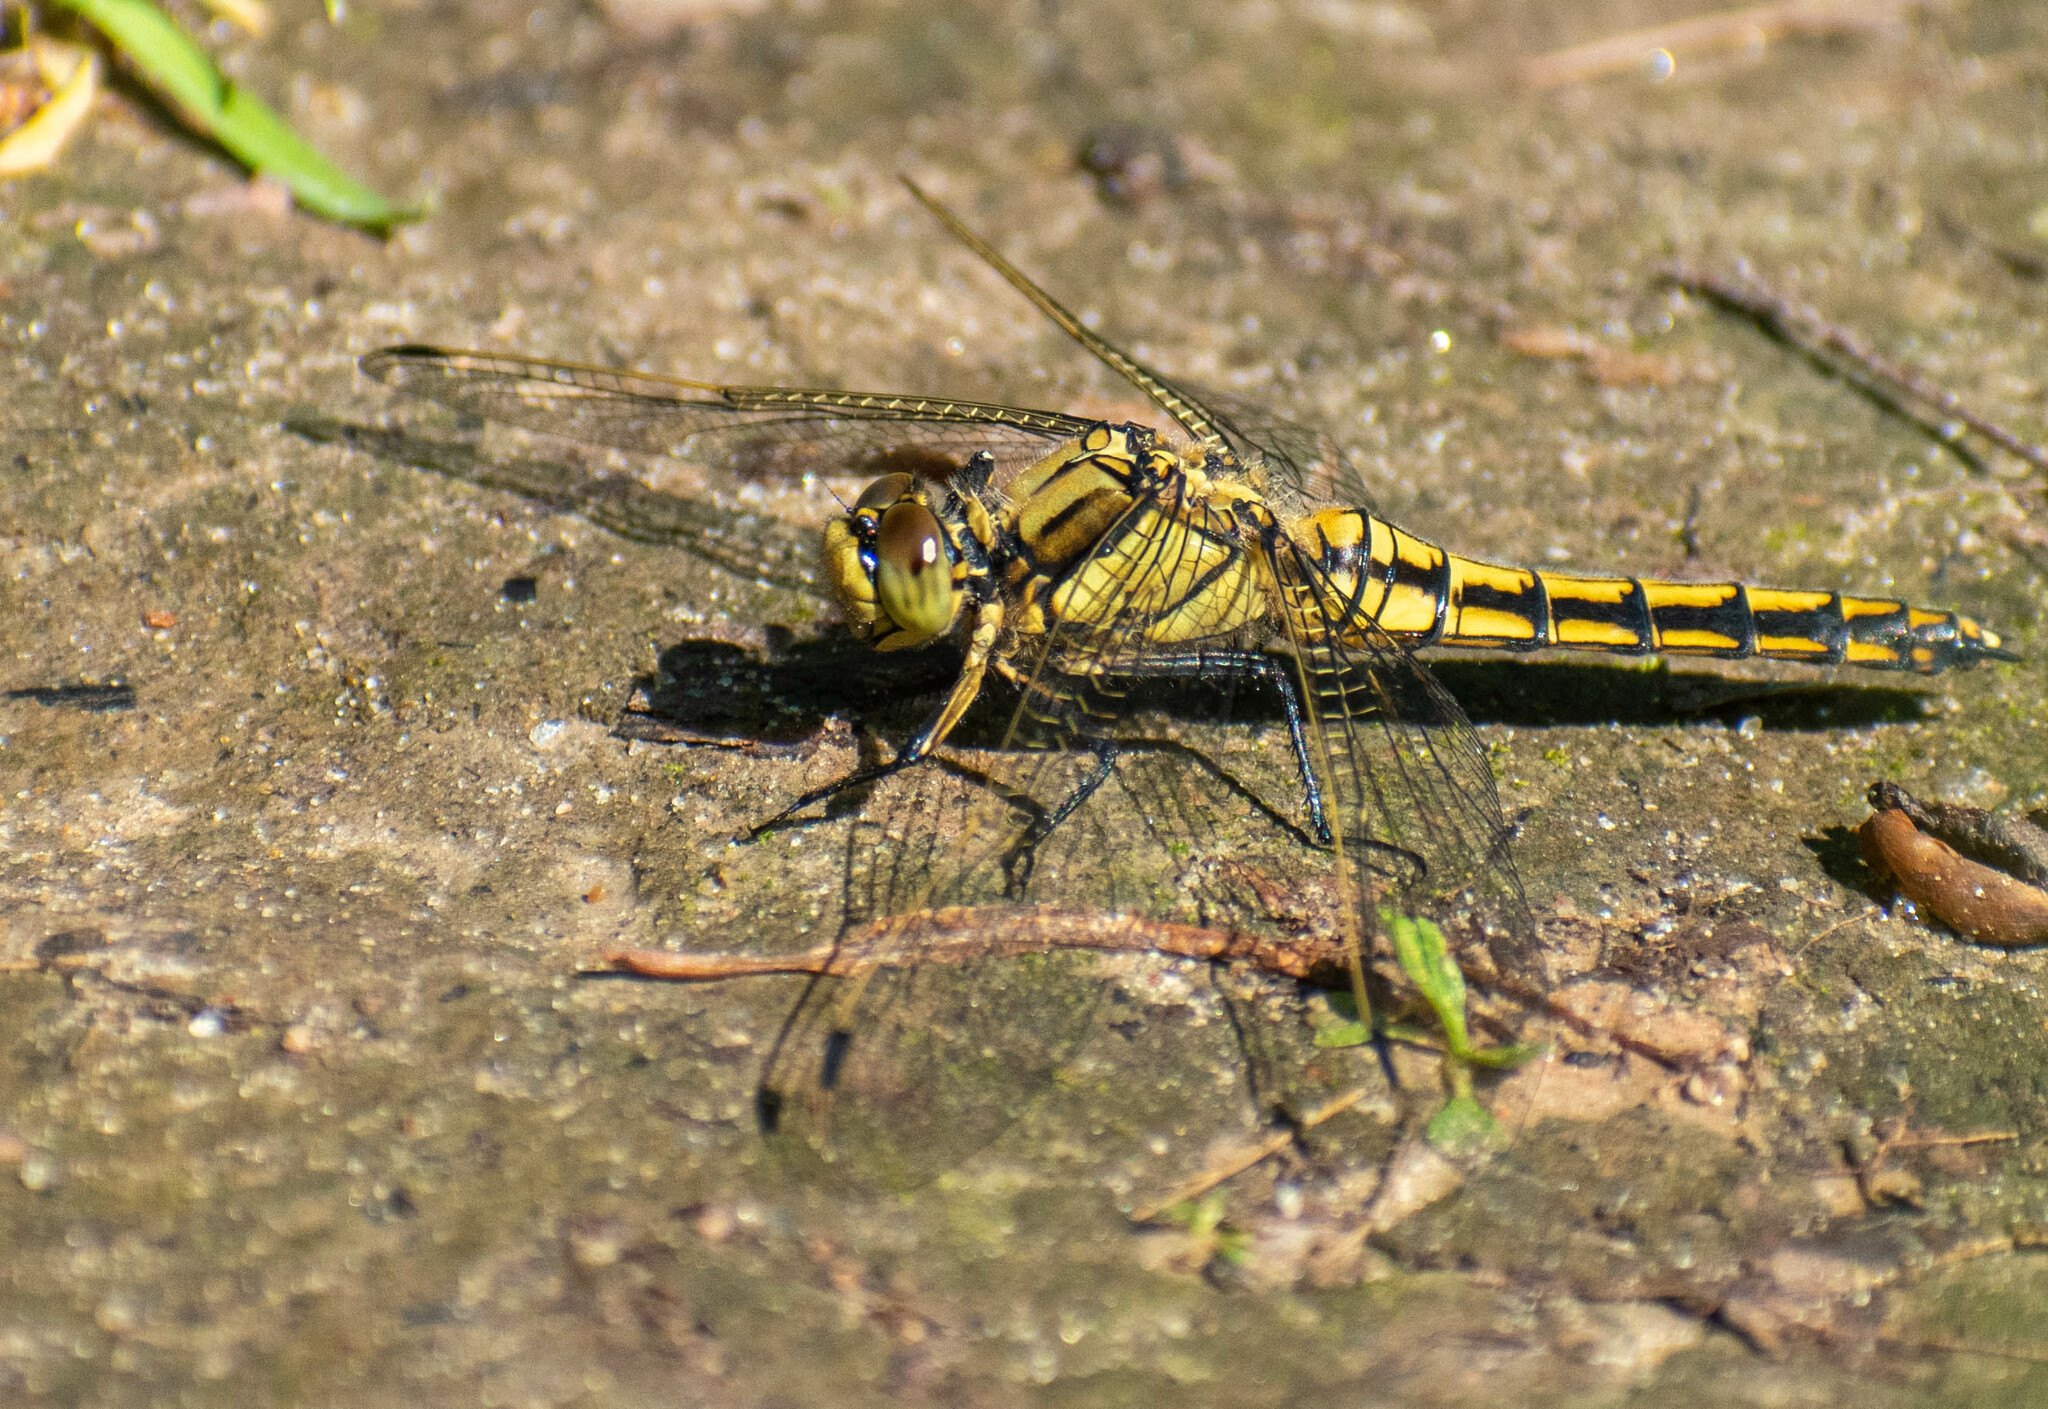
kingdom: Animalia
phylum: Arthropoda
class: Insecta
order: Odonata
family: Libellulidae
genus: Orthetrum
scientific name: Orthetrum cancellatum
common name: Black-tailed skimmer
